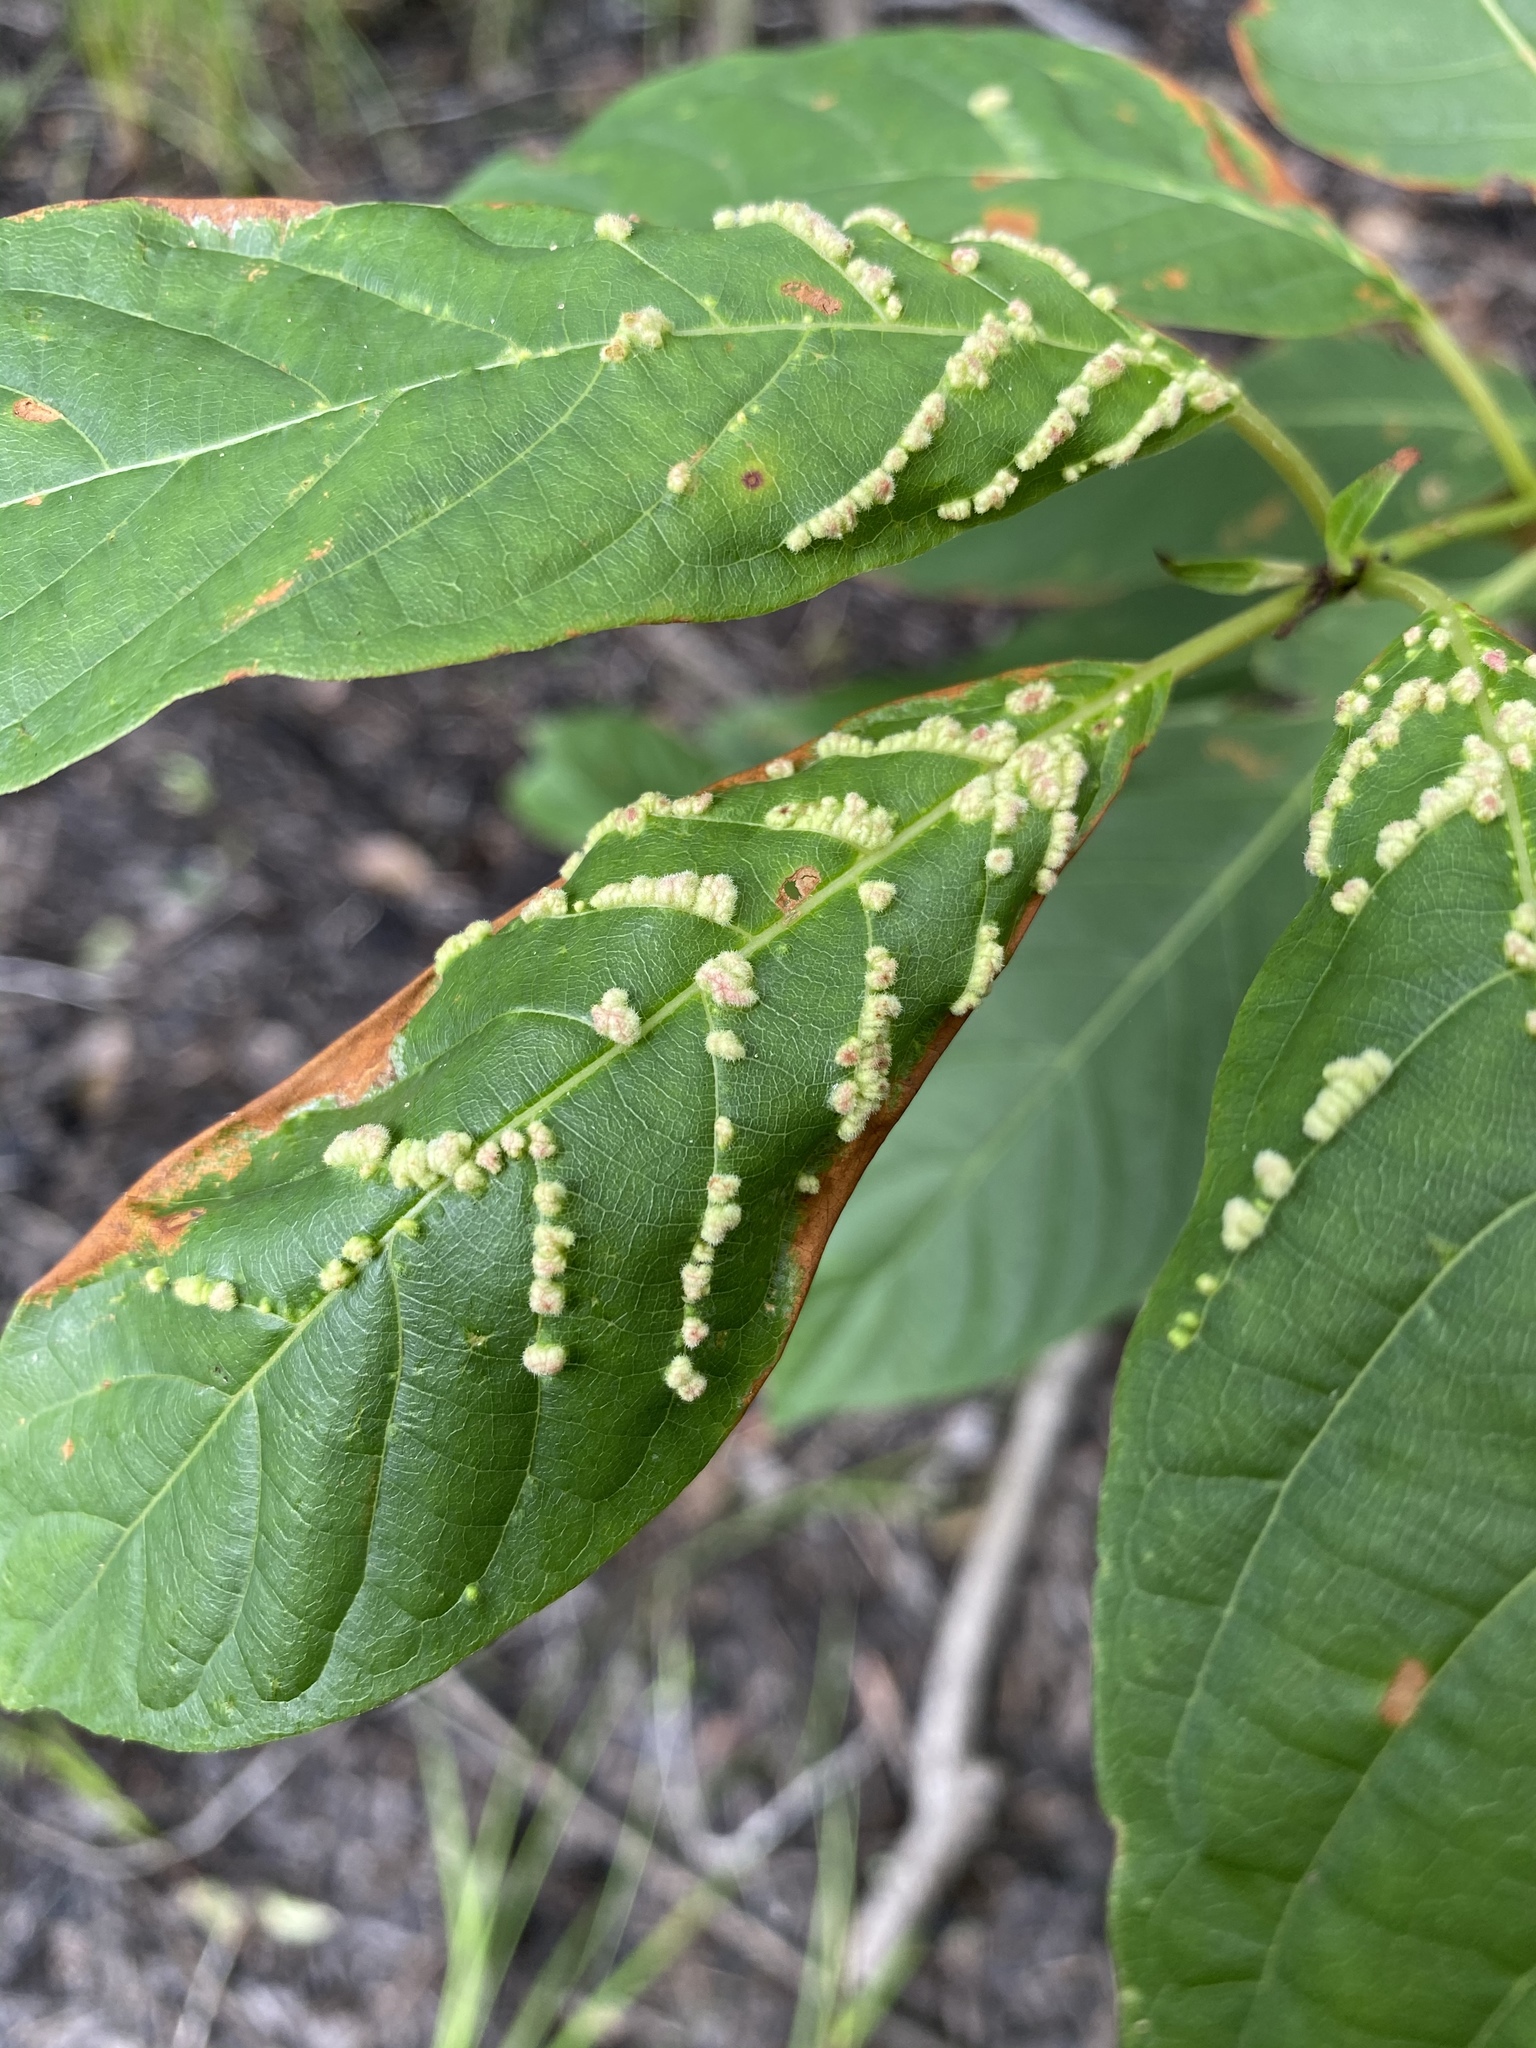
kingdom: Animalia
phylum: Arthropoda
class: Arachnida
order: Trombidiformes
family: Eriophyidae
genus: Aceria
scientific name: Aceria
